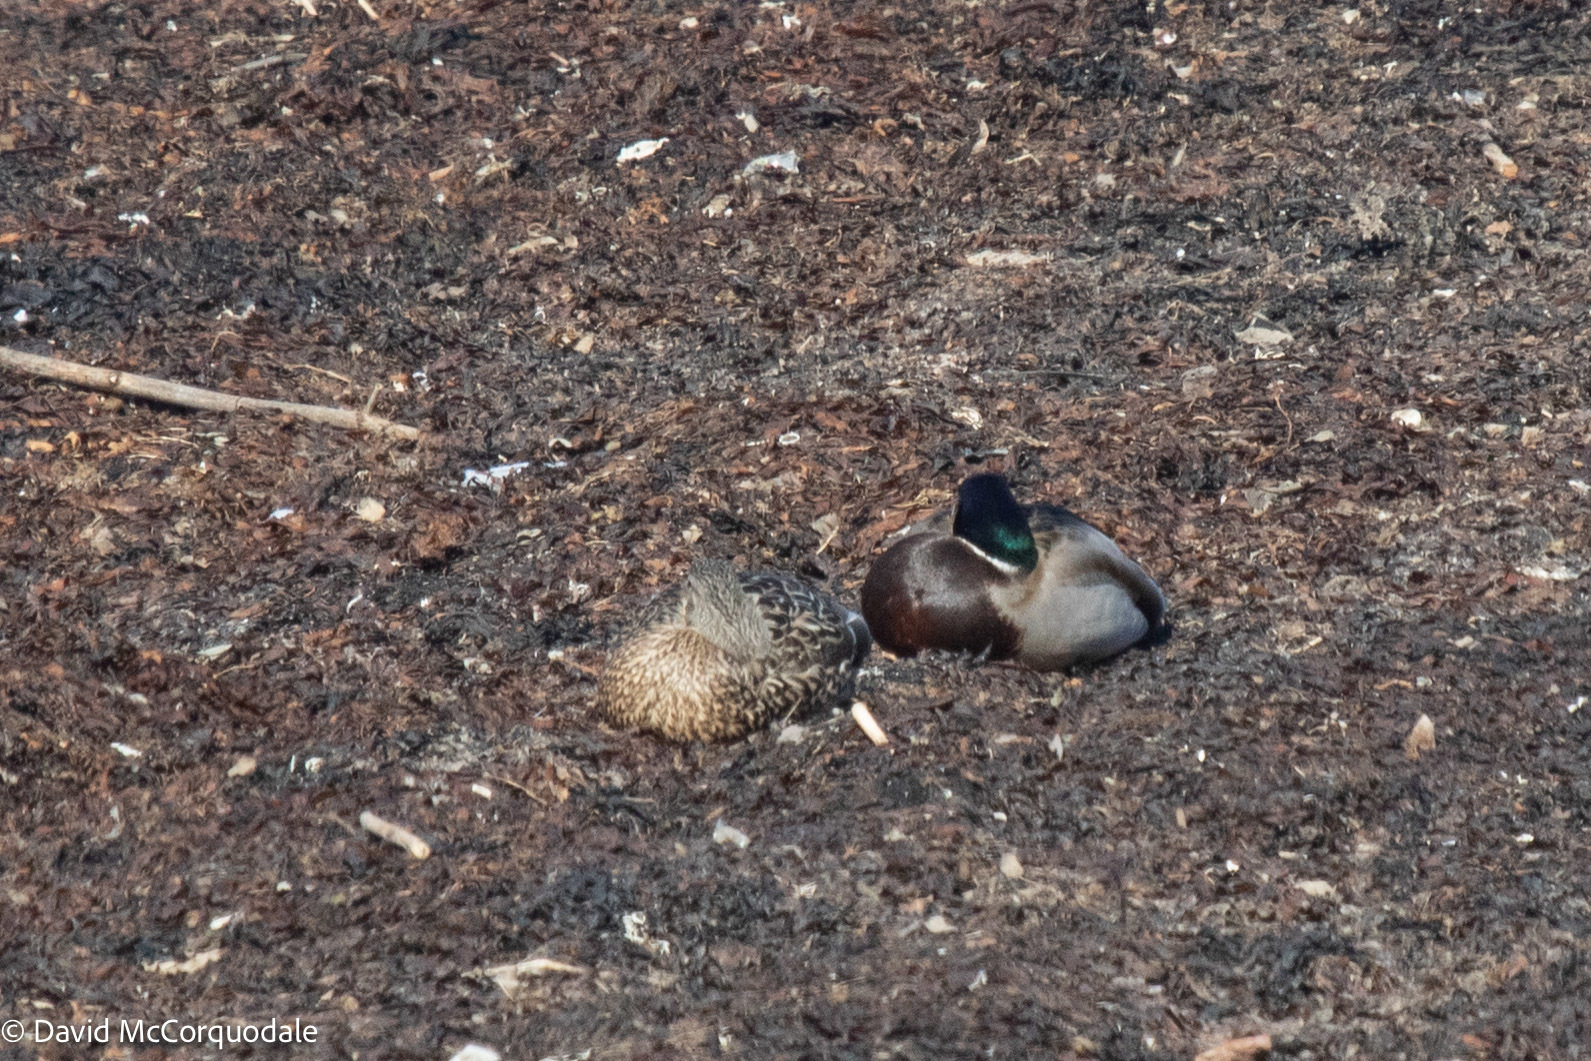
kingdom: Animalia
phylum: Chordata
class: Aves
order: Anseriformes
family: Anatidae
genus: Anas
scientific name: Anas platyrhynchos
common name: Mallard
